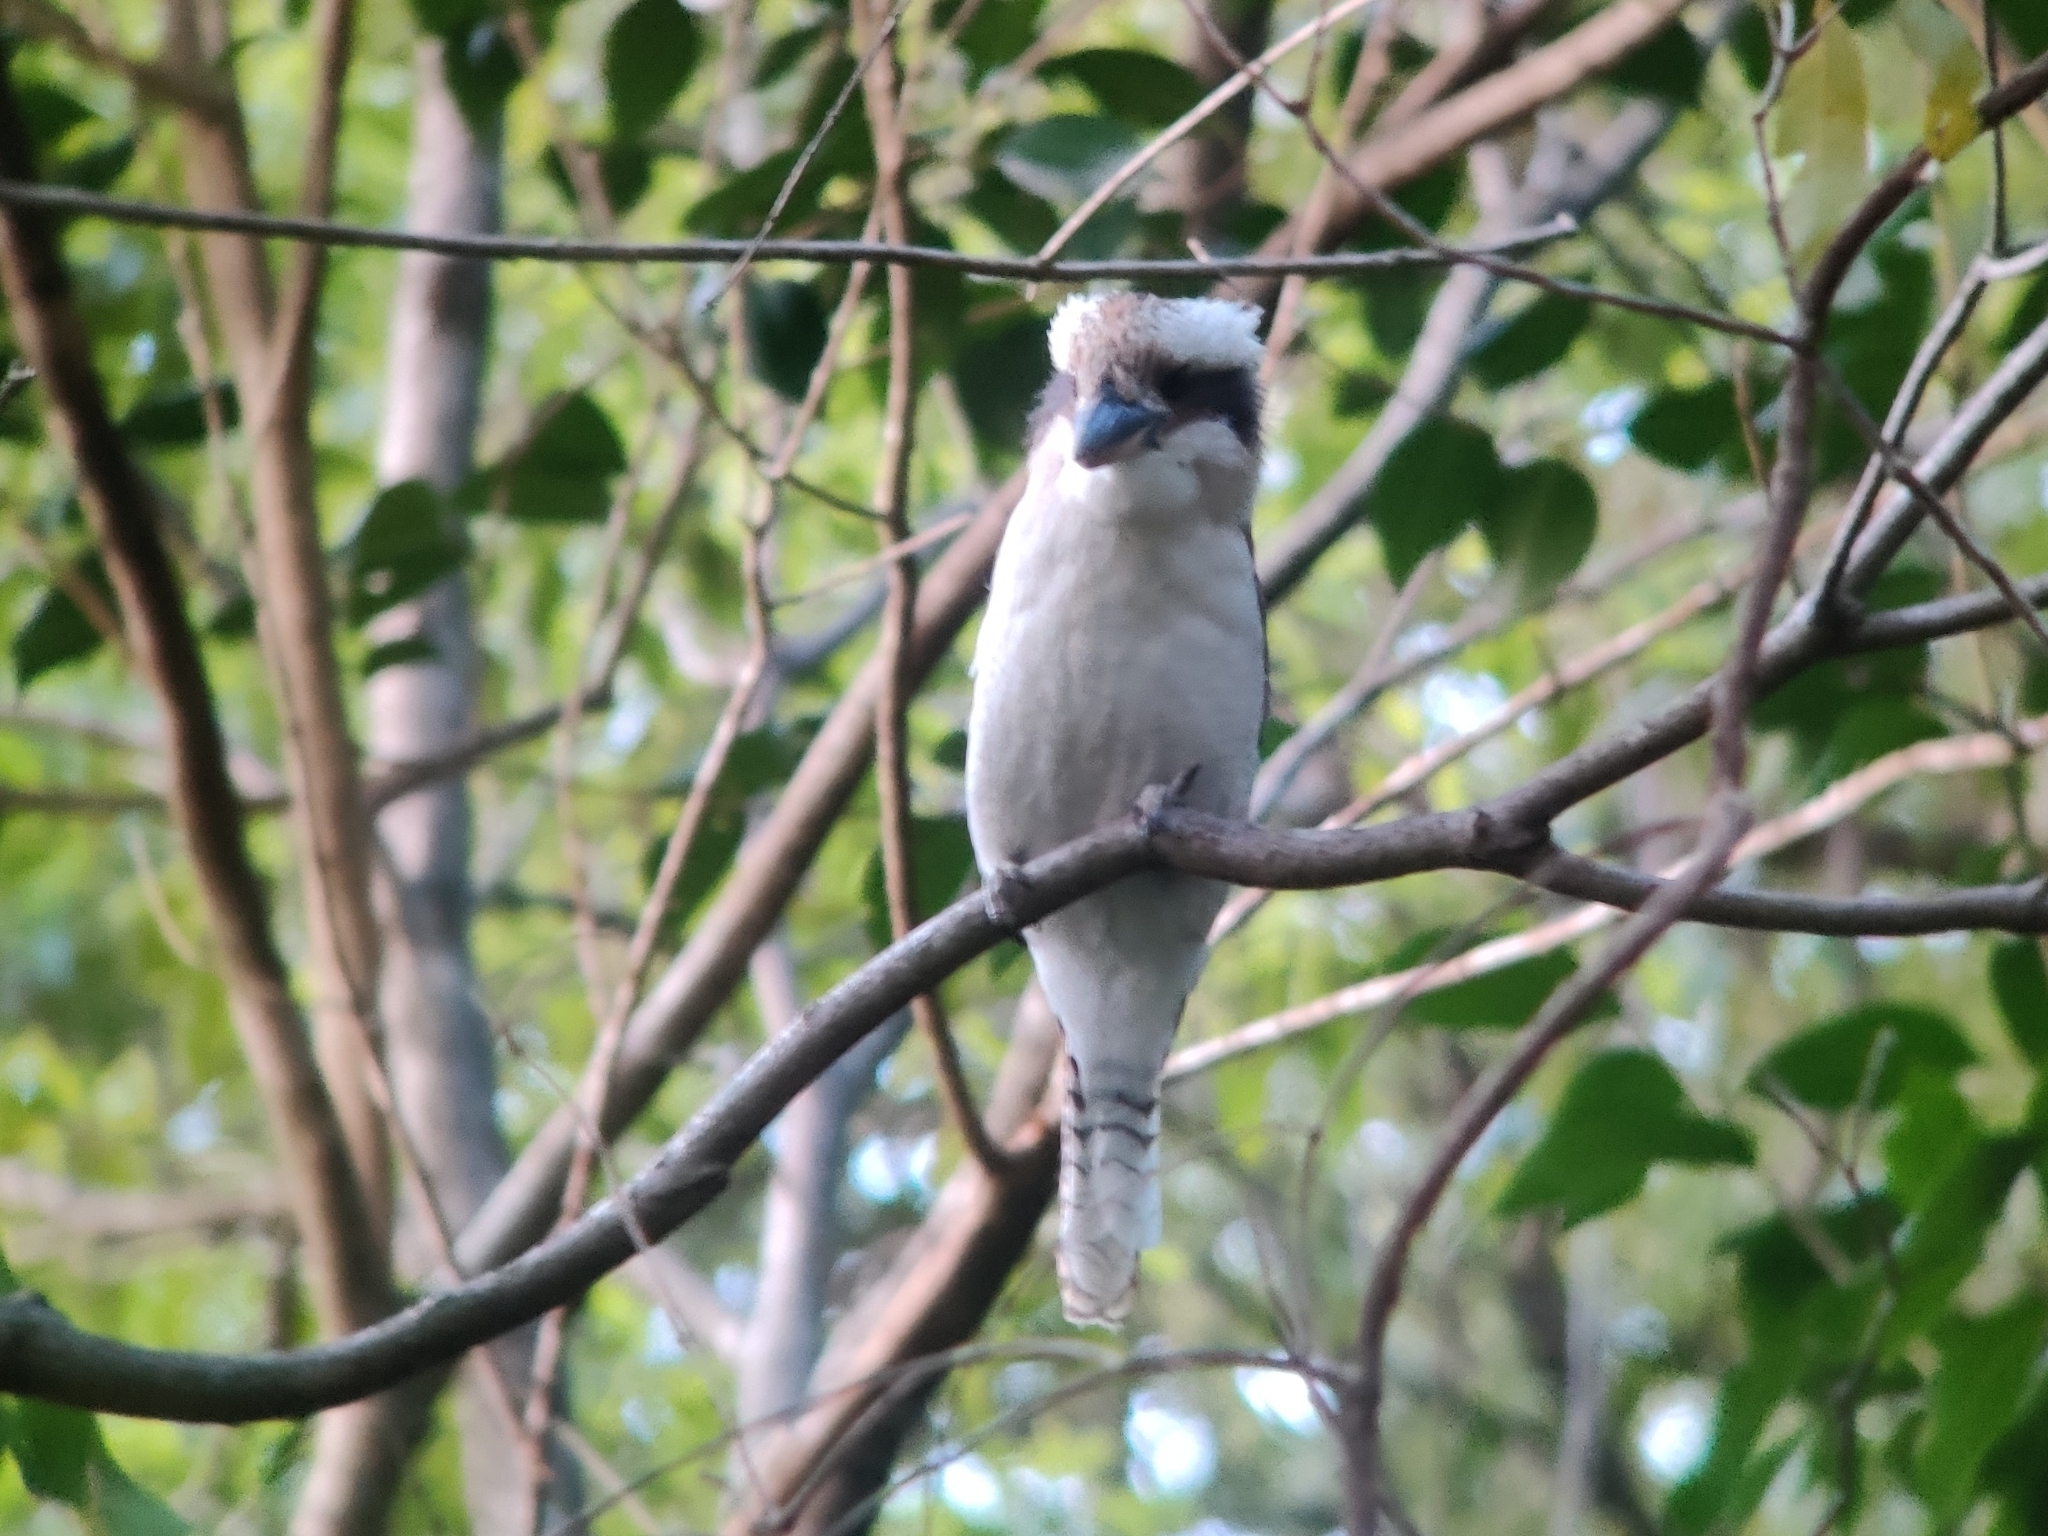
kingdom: Animalia
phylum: Chordata
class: Aves
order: Coraciiformes
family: Alcedinidae
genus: Dacelo
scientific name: Dacelo novaeguineae
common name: Laughing kookaburra
